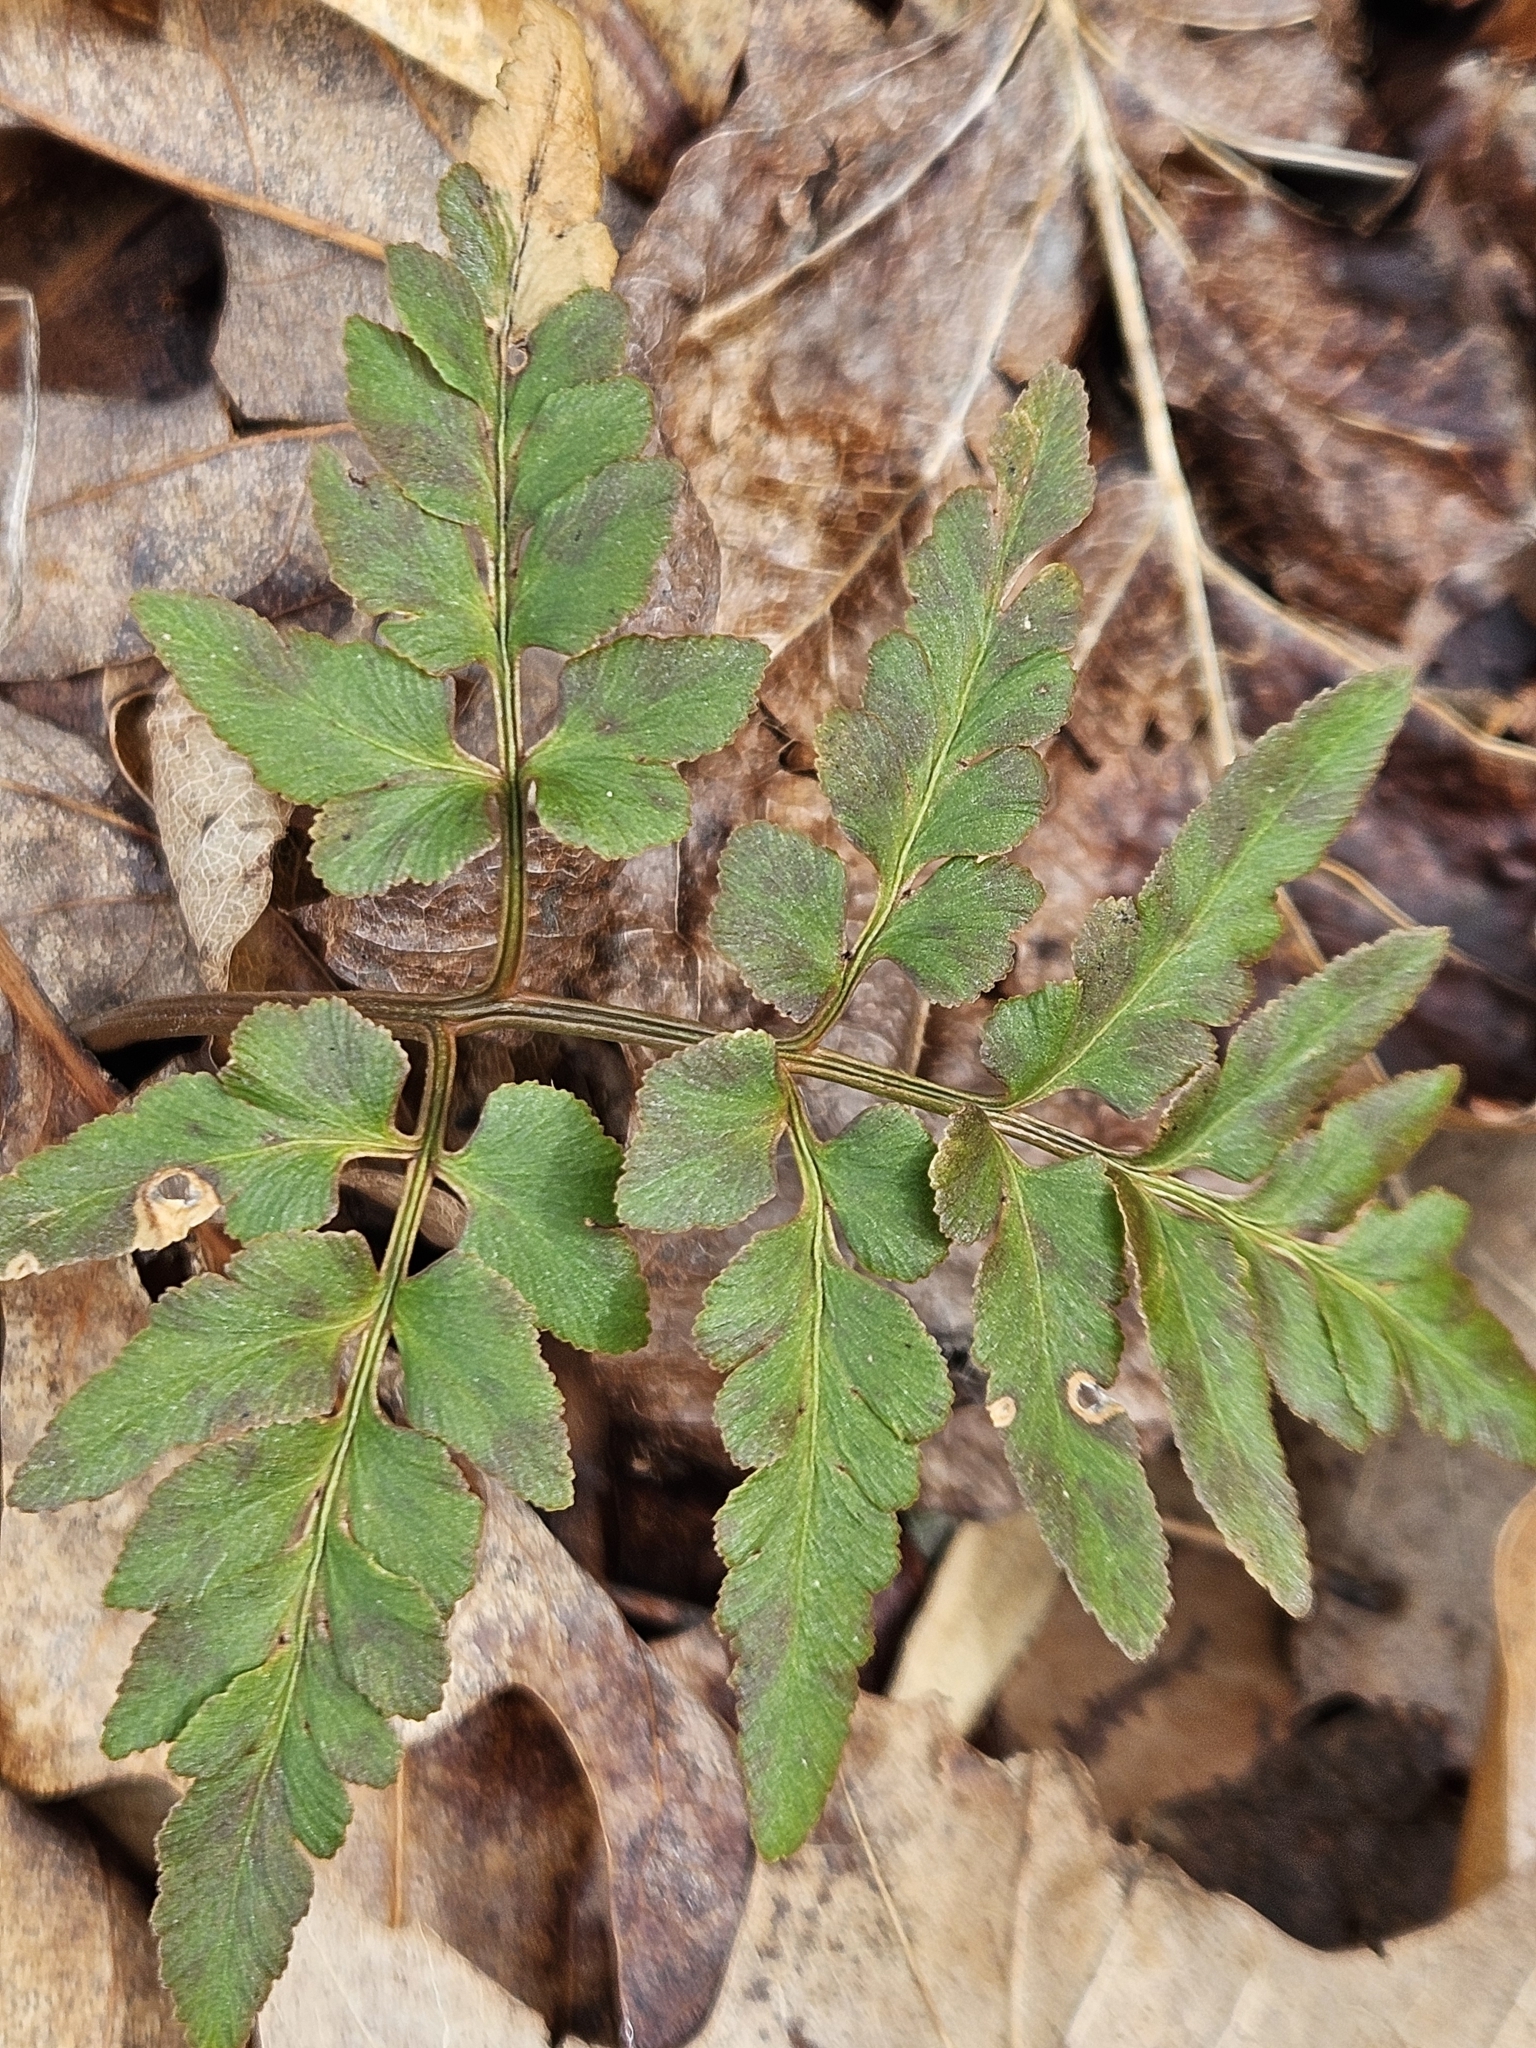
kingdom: Plantae
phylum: Tracheophyta
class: Polypodiopsida
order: Ophioglossales
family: Ophioglossaceae
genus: Sceptridium
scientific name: Sceptridium dissectum
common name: Cut-leaved grapefern
